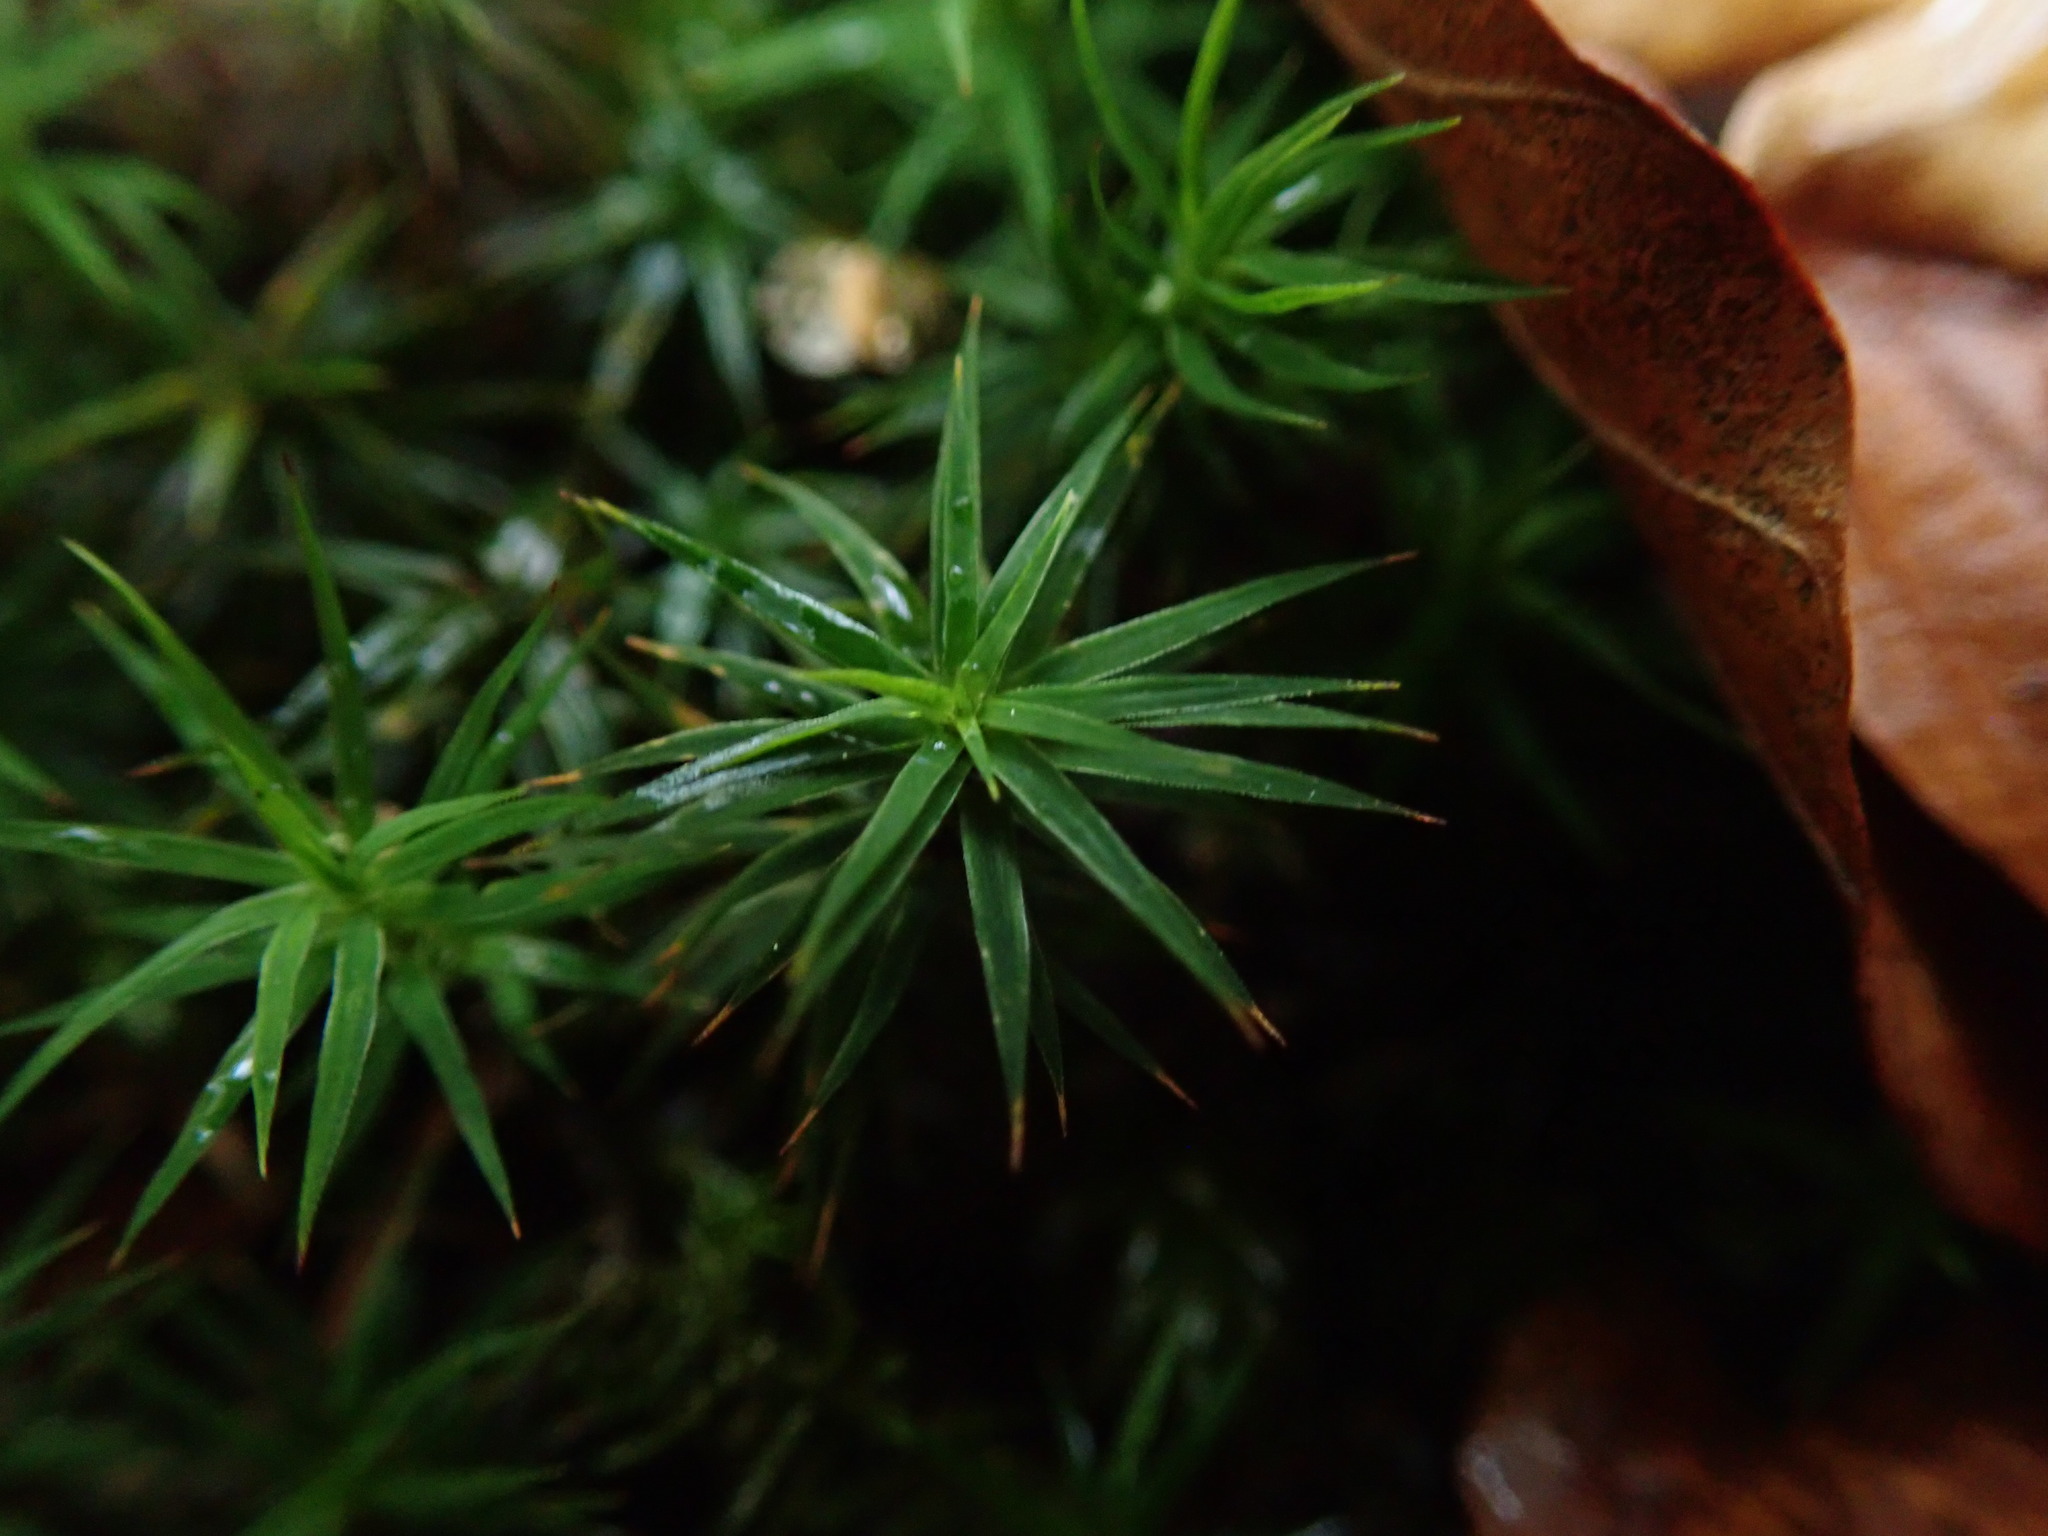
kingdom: Plantae
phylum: Bryophyta
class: Polytrichopsida
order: Polytrichales
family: Polytrichaceae
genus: Polytrichum
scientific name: Polytrichum formosum
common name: Bank haircap moss
